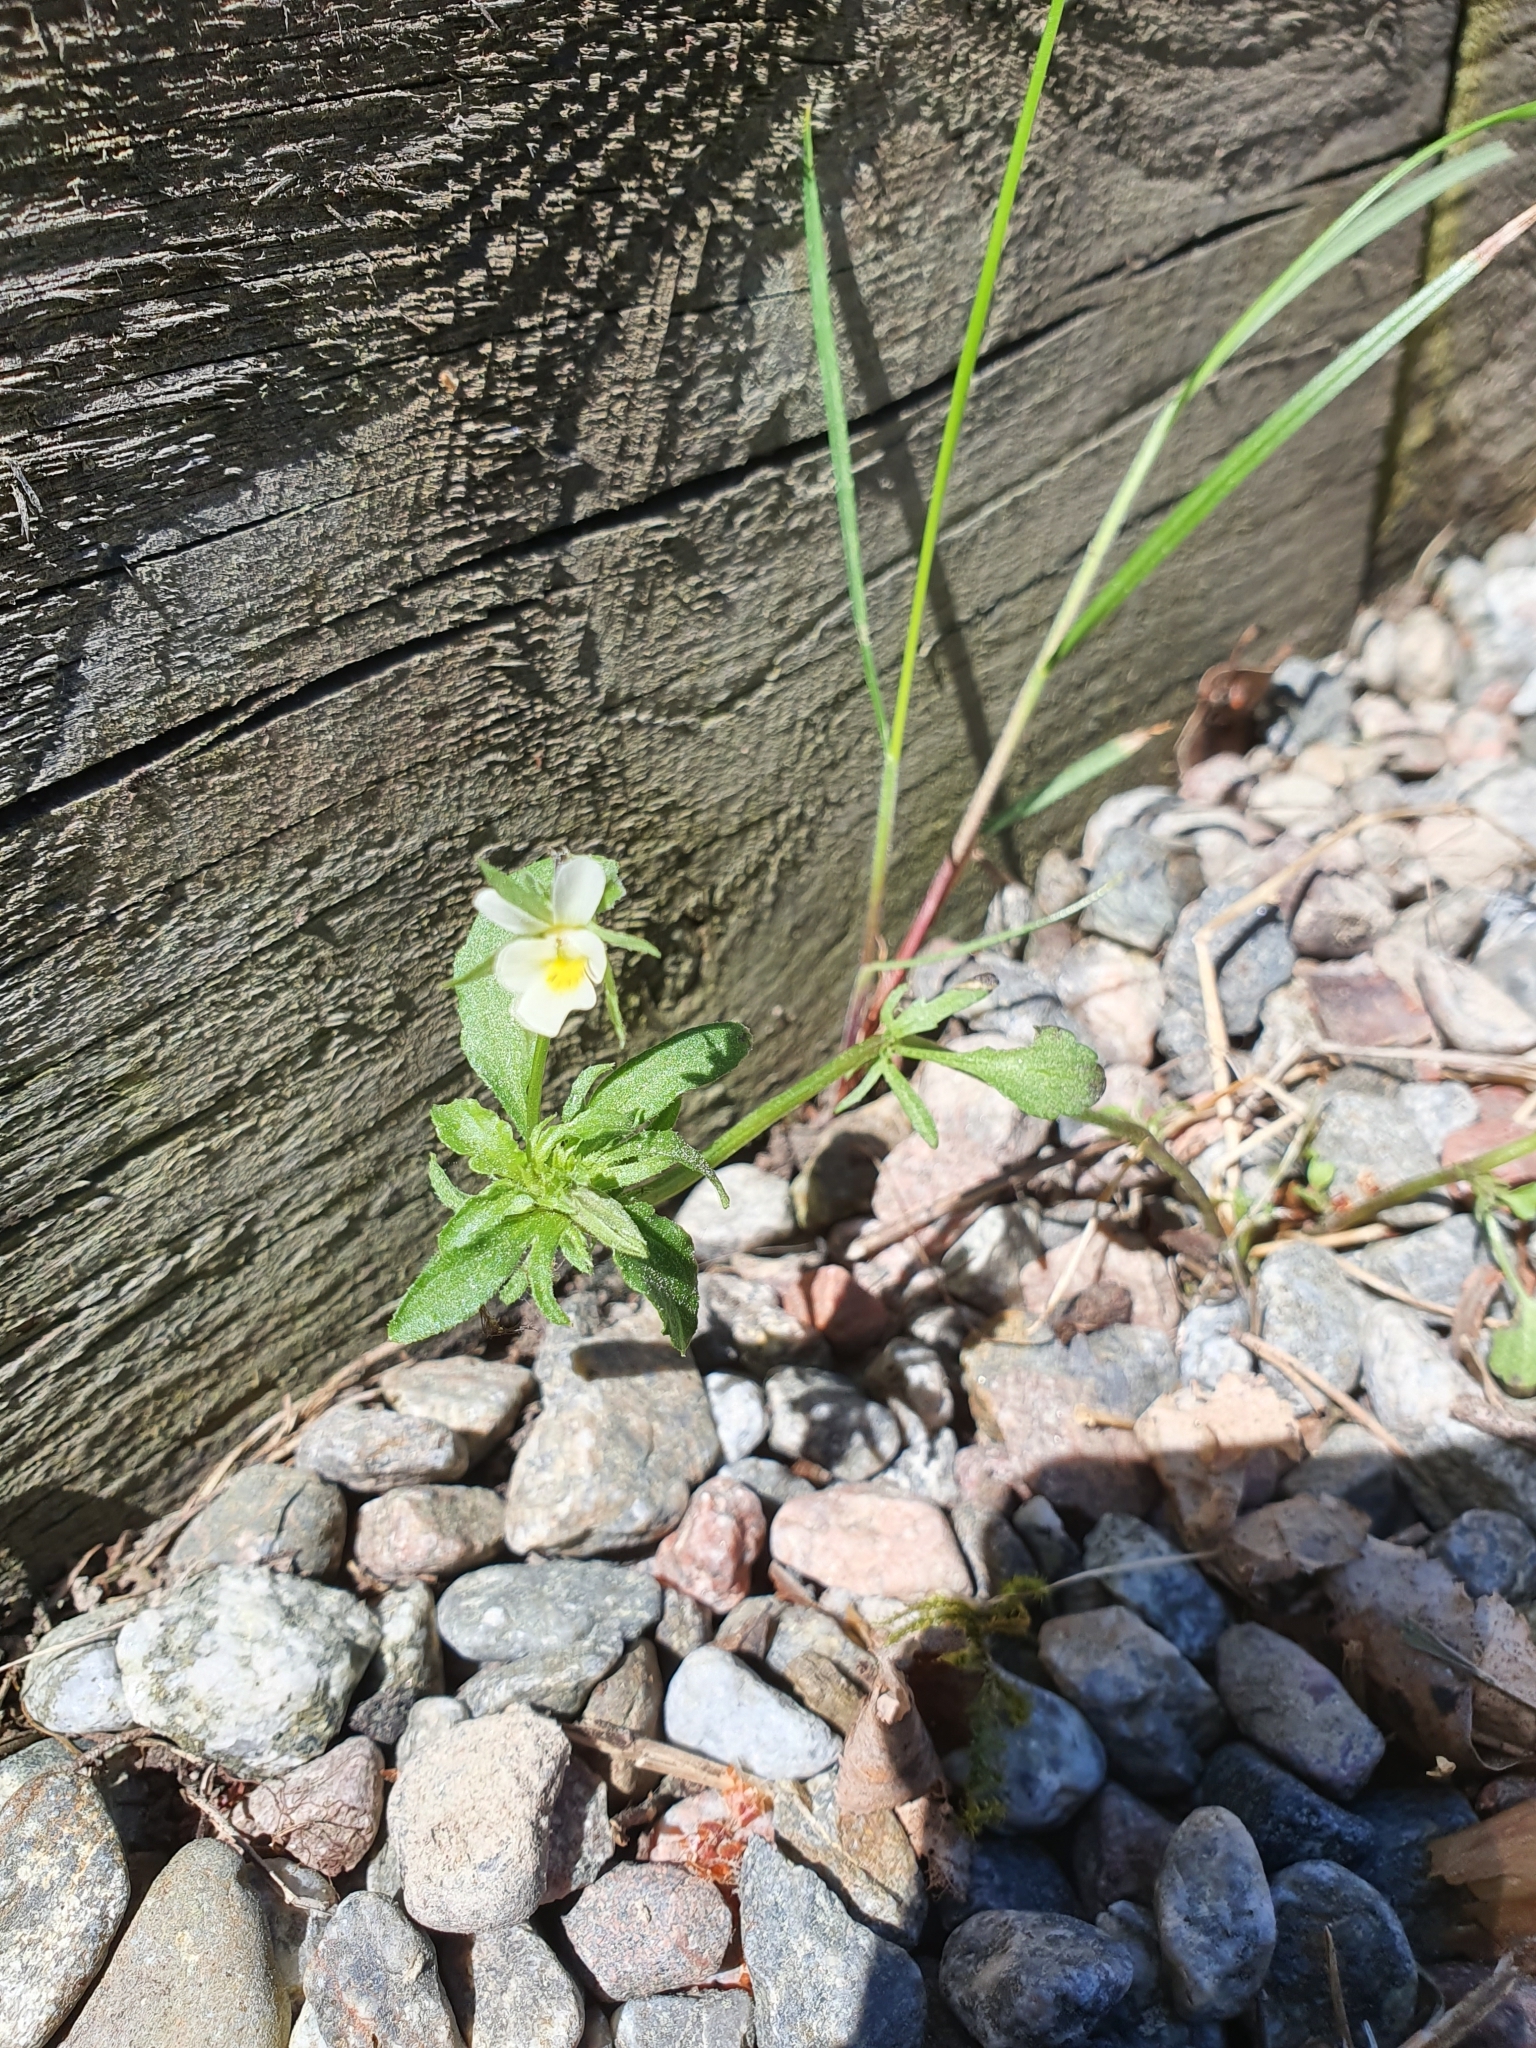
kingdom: Plantae
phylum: Tracheophyta
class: Magnoliopsida
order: Malpighiales
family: Violaceae
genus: Viola
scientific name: Viola arvensis
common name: Field pansy
